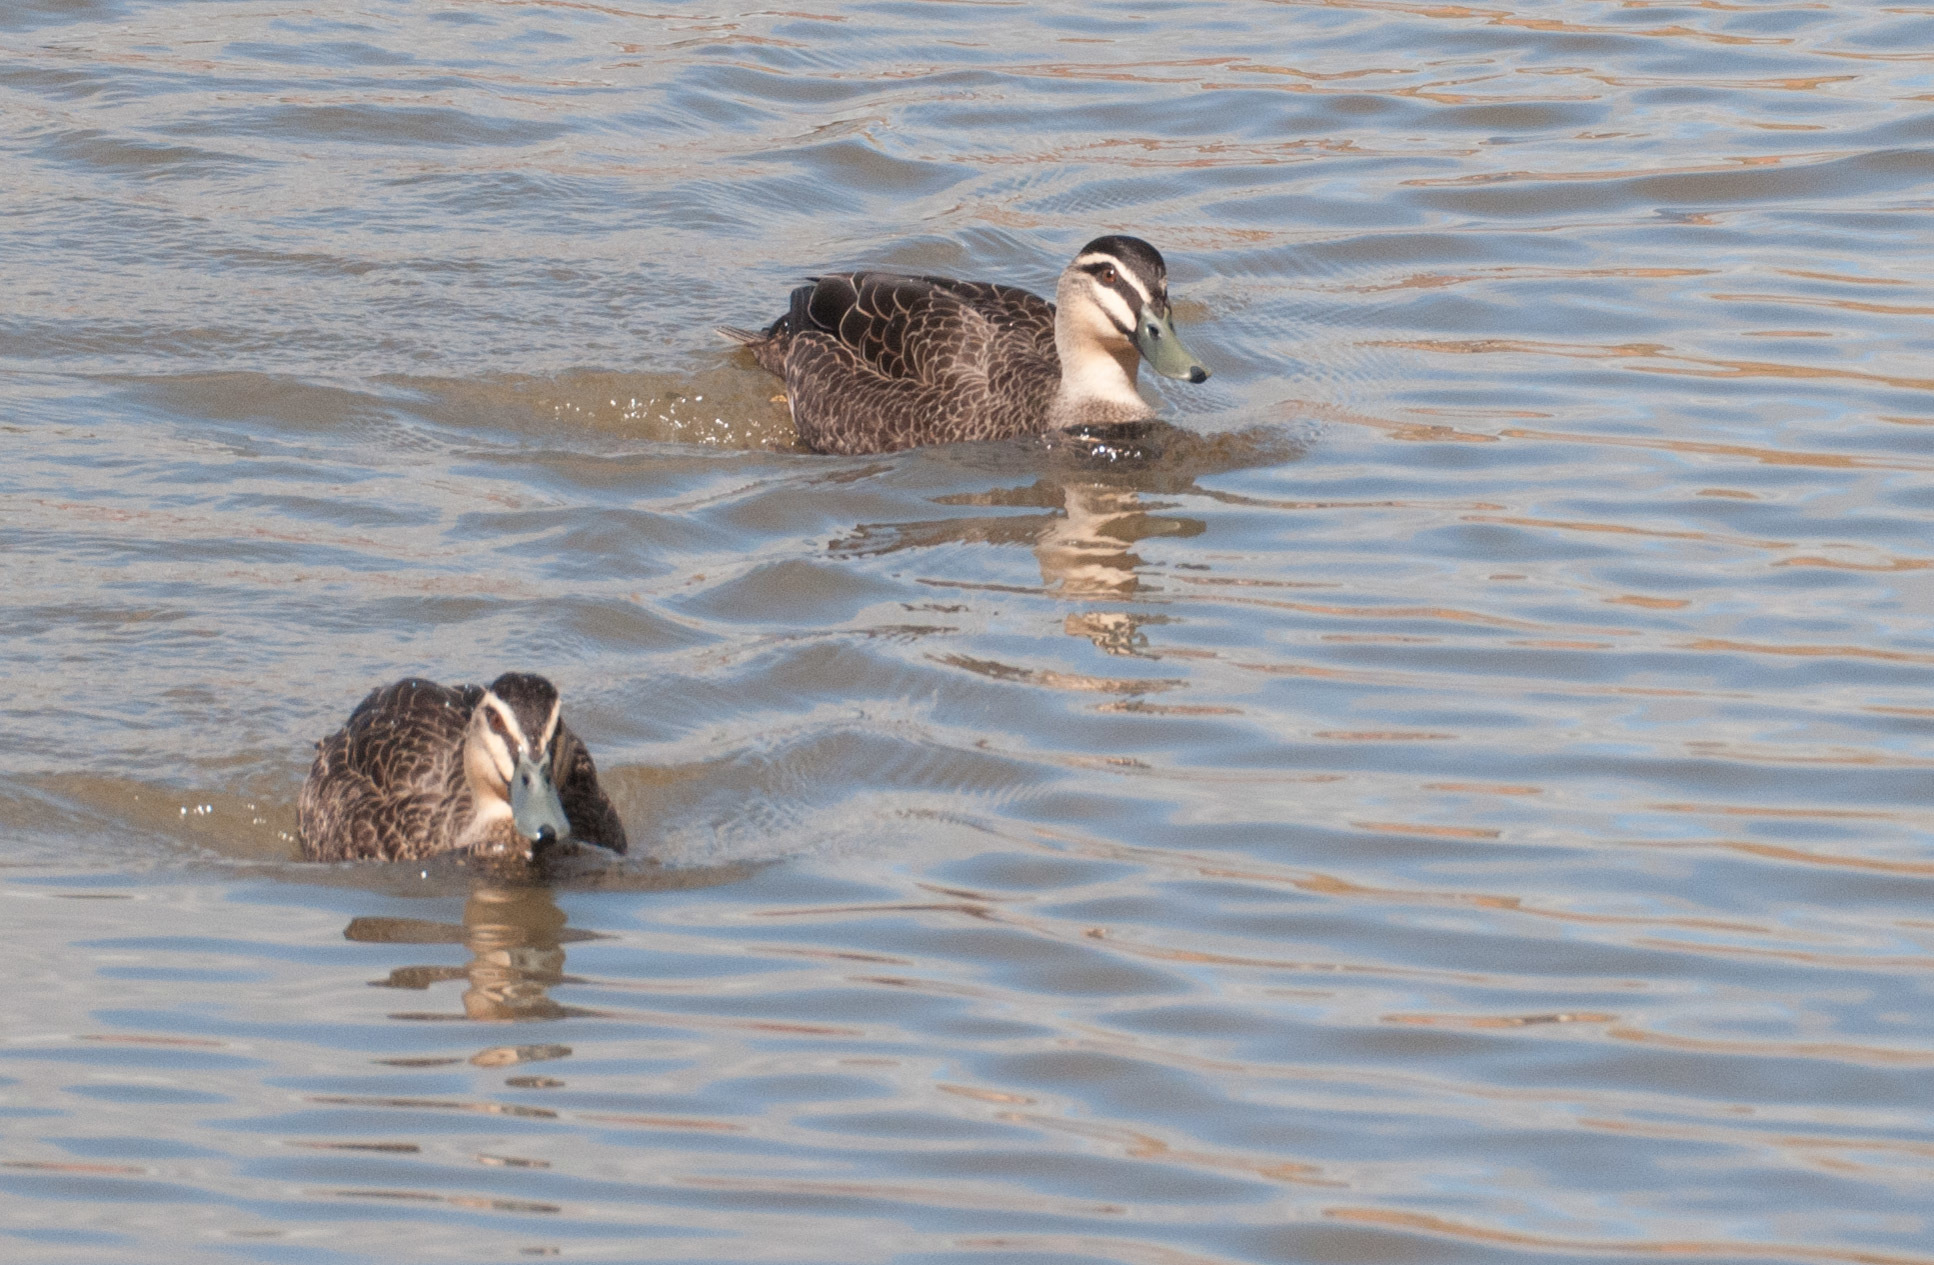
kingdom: Animalia
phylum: Chordata
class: Aves
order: Anseriformes
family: Anatidae
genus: Anas
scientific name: Anas superciliosa
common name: Pacific black duck
